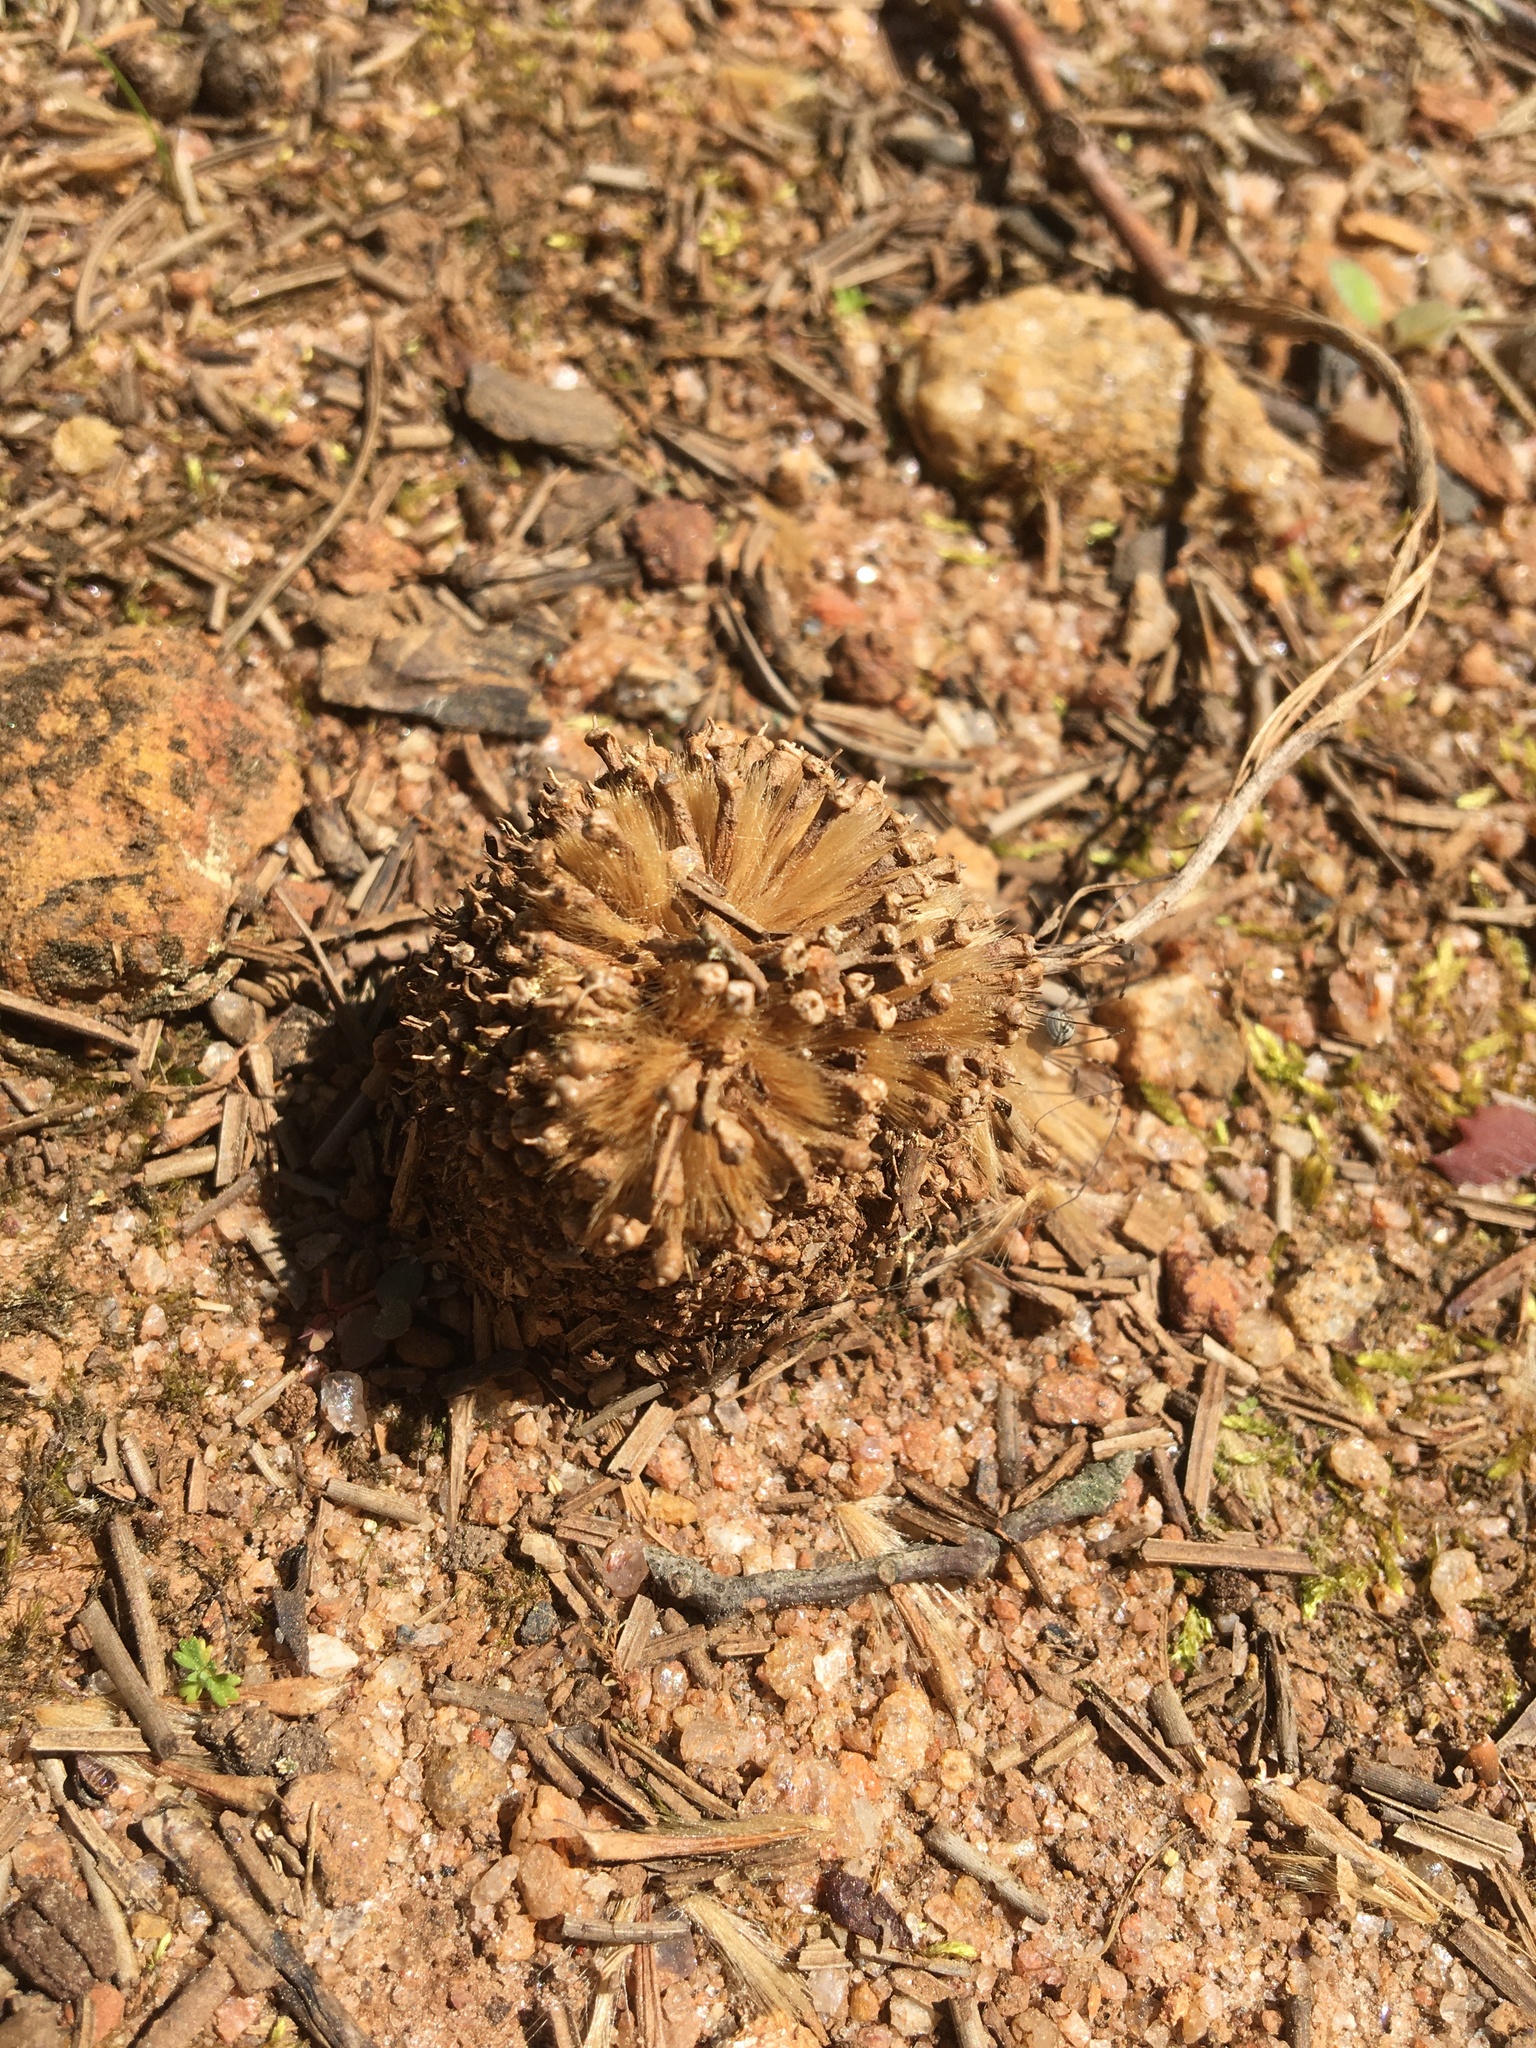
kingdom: Plantae
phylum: Tracheophyta
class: Magnoliopsida
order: Proteales
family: Platanaceae
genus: Platanus
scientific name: Platanus occidentalis
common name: American sycamore
